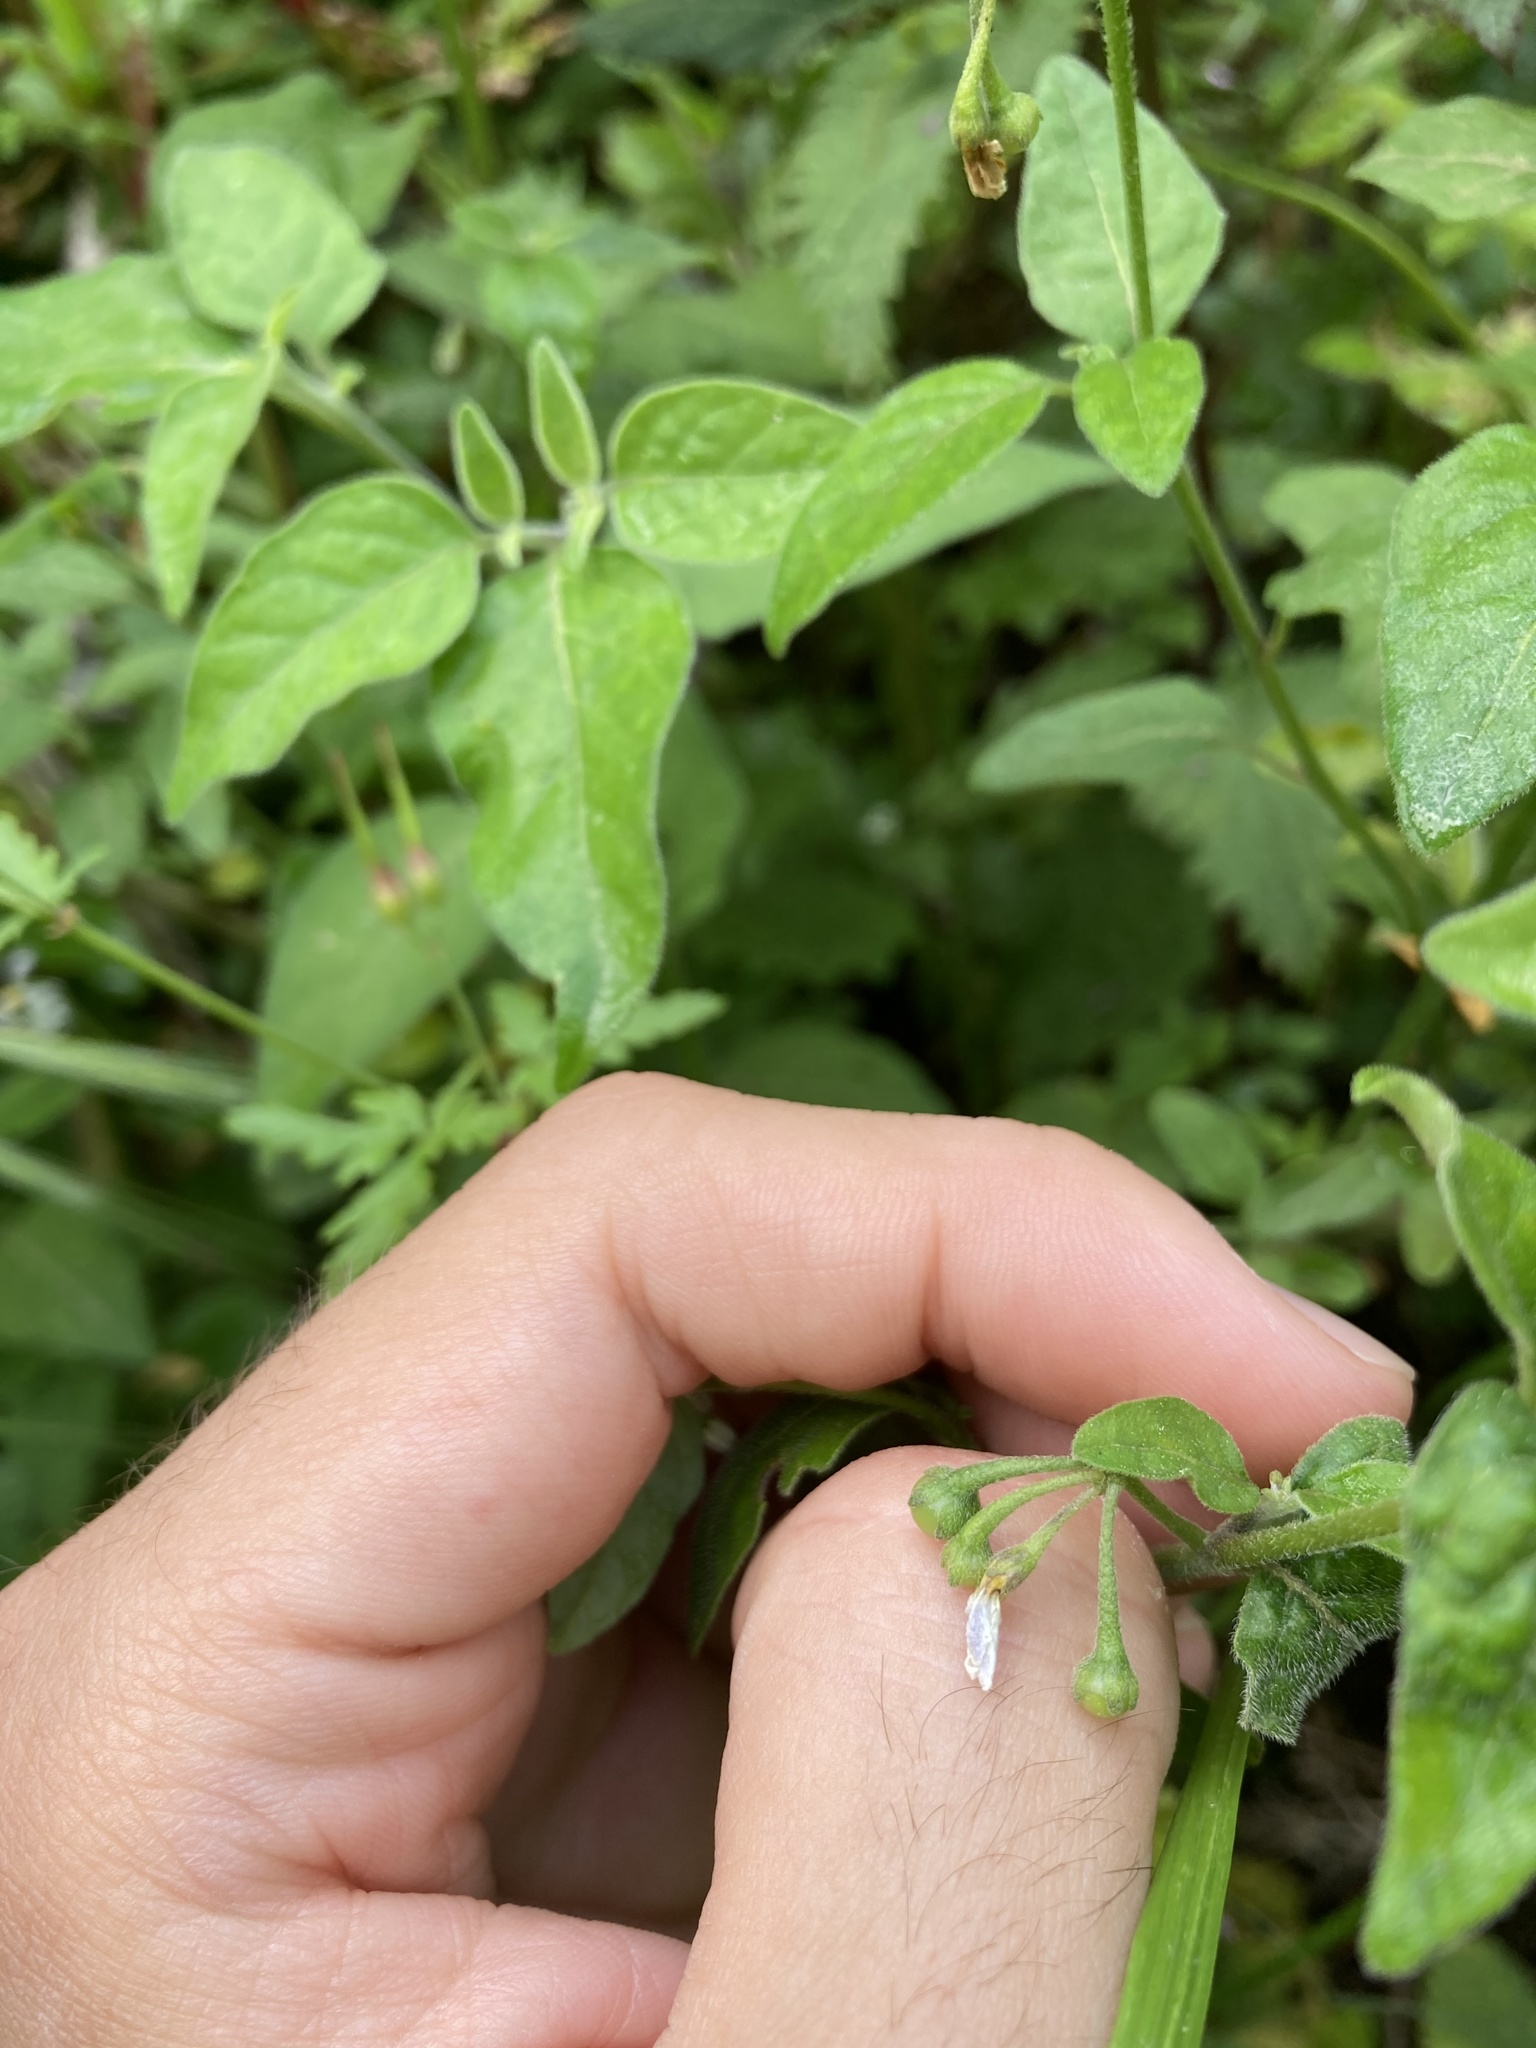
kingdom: Plantae
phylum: Tracheophyta
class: Magnoliopsida
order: Solanales
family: Solanaceae
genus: Solanum
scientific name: Solanum chenopodioides
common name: Tall nightshade
